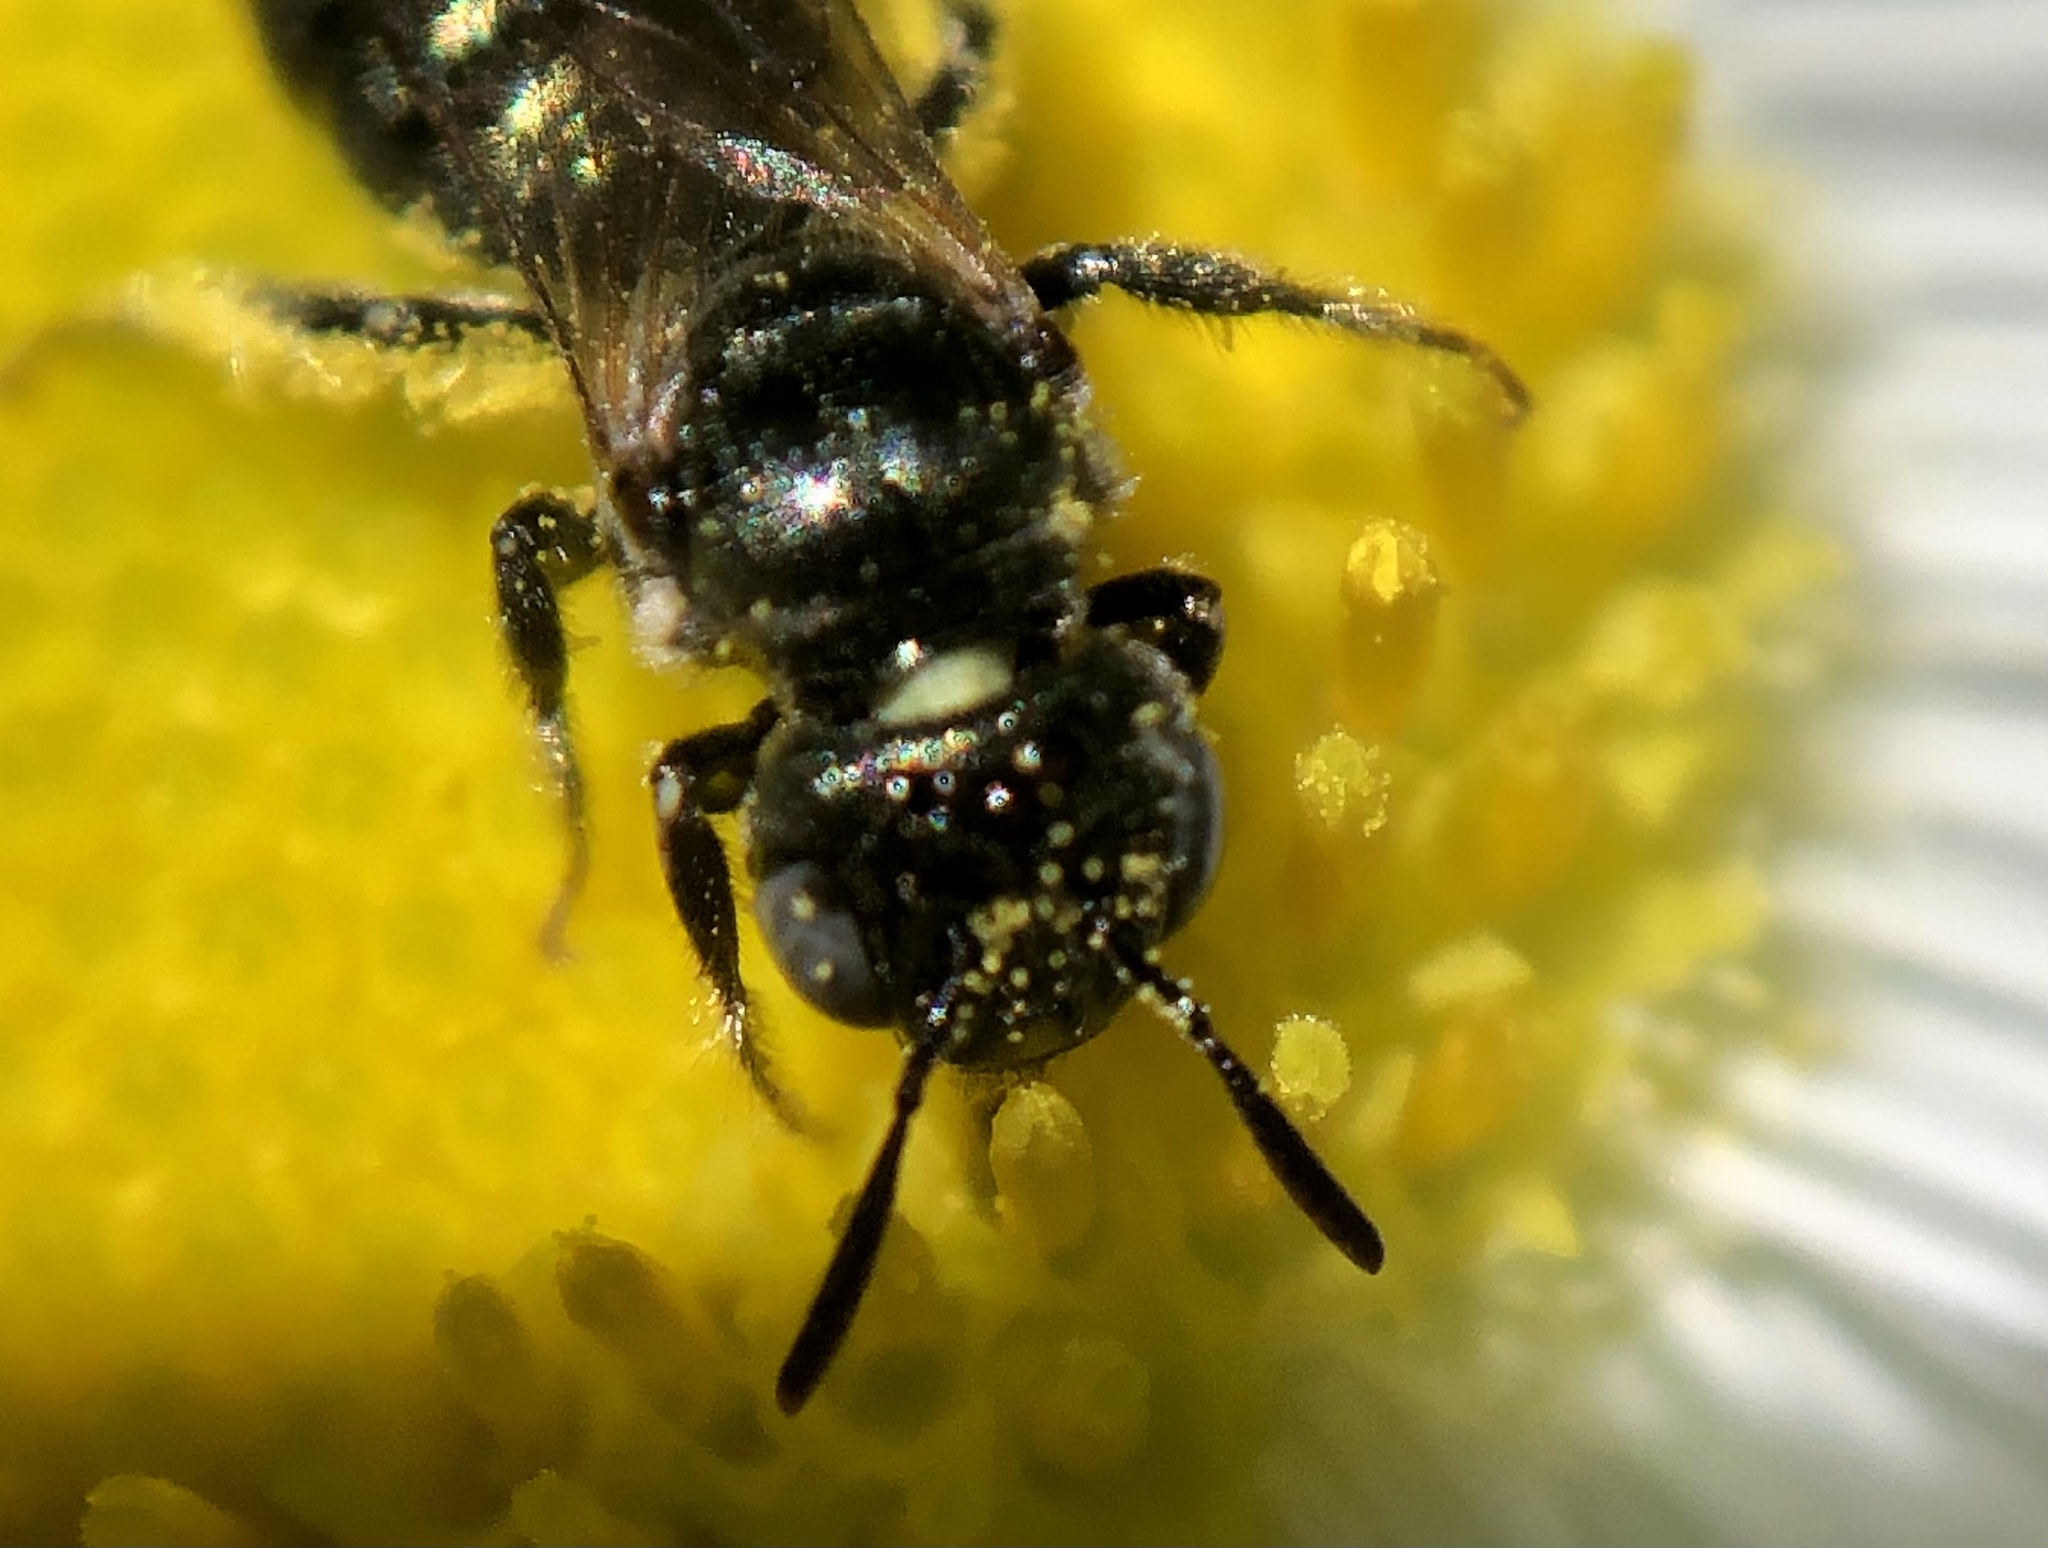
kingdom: Animalia
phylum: Arthropoda
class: Insecta
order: Hymenoptera
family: Apidae
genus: Ceratina
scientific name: Ceratina strenua
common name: Nimble carpenter bee
